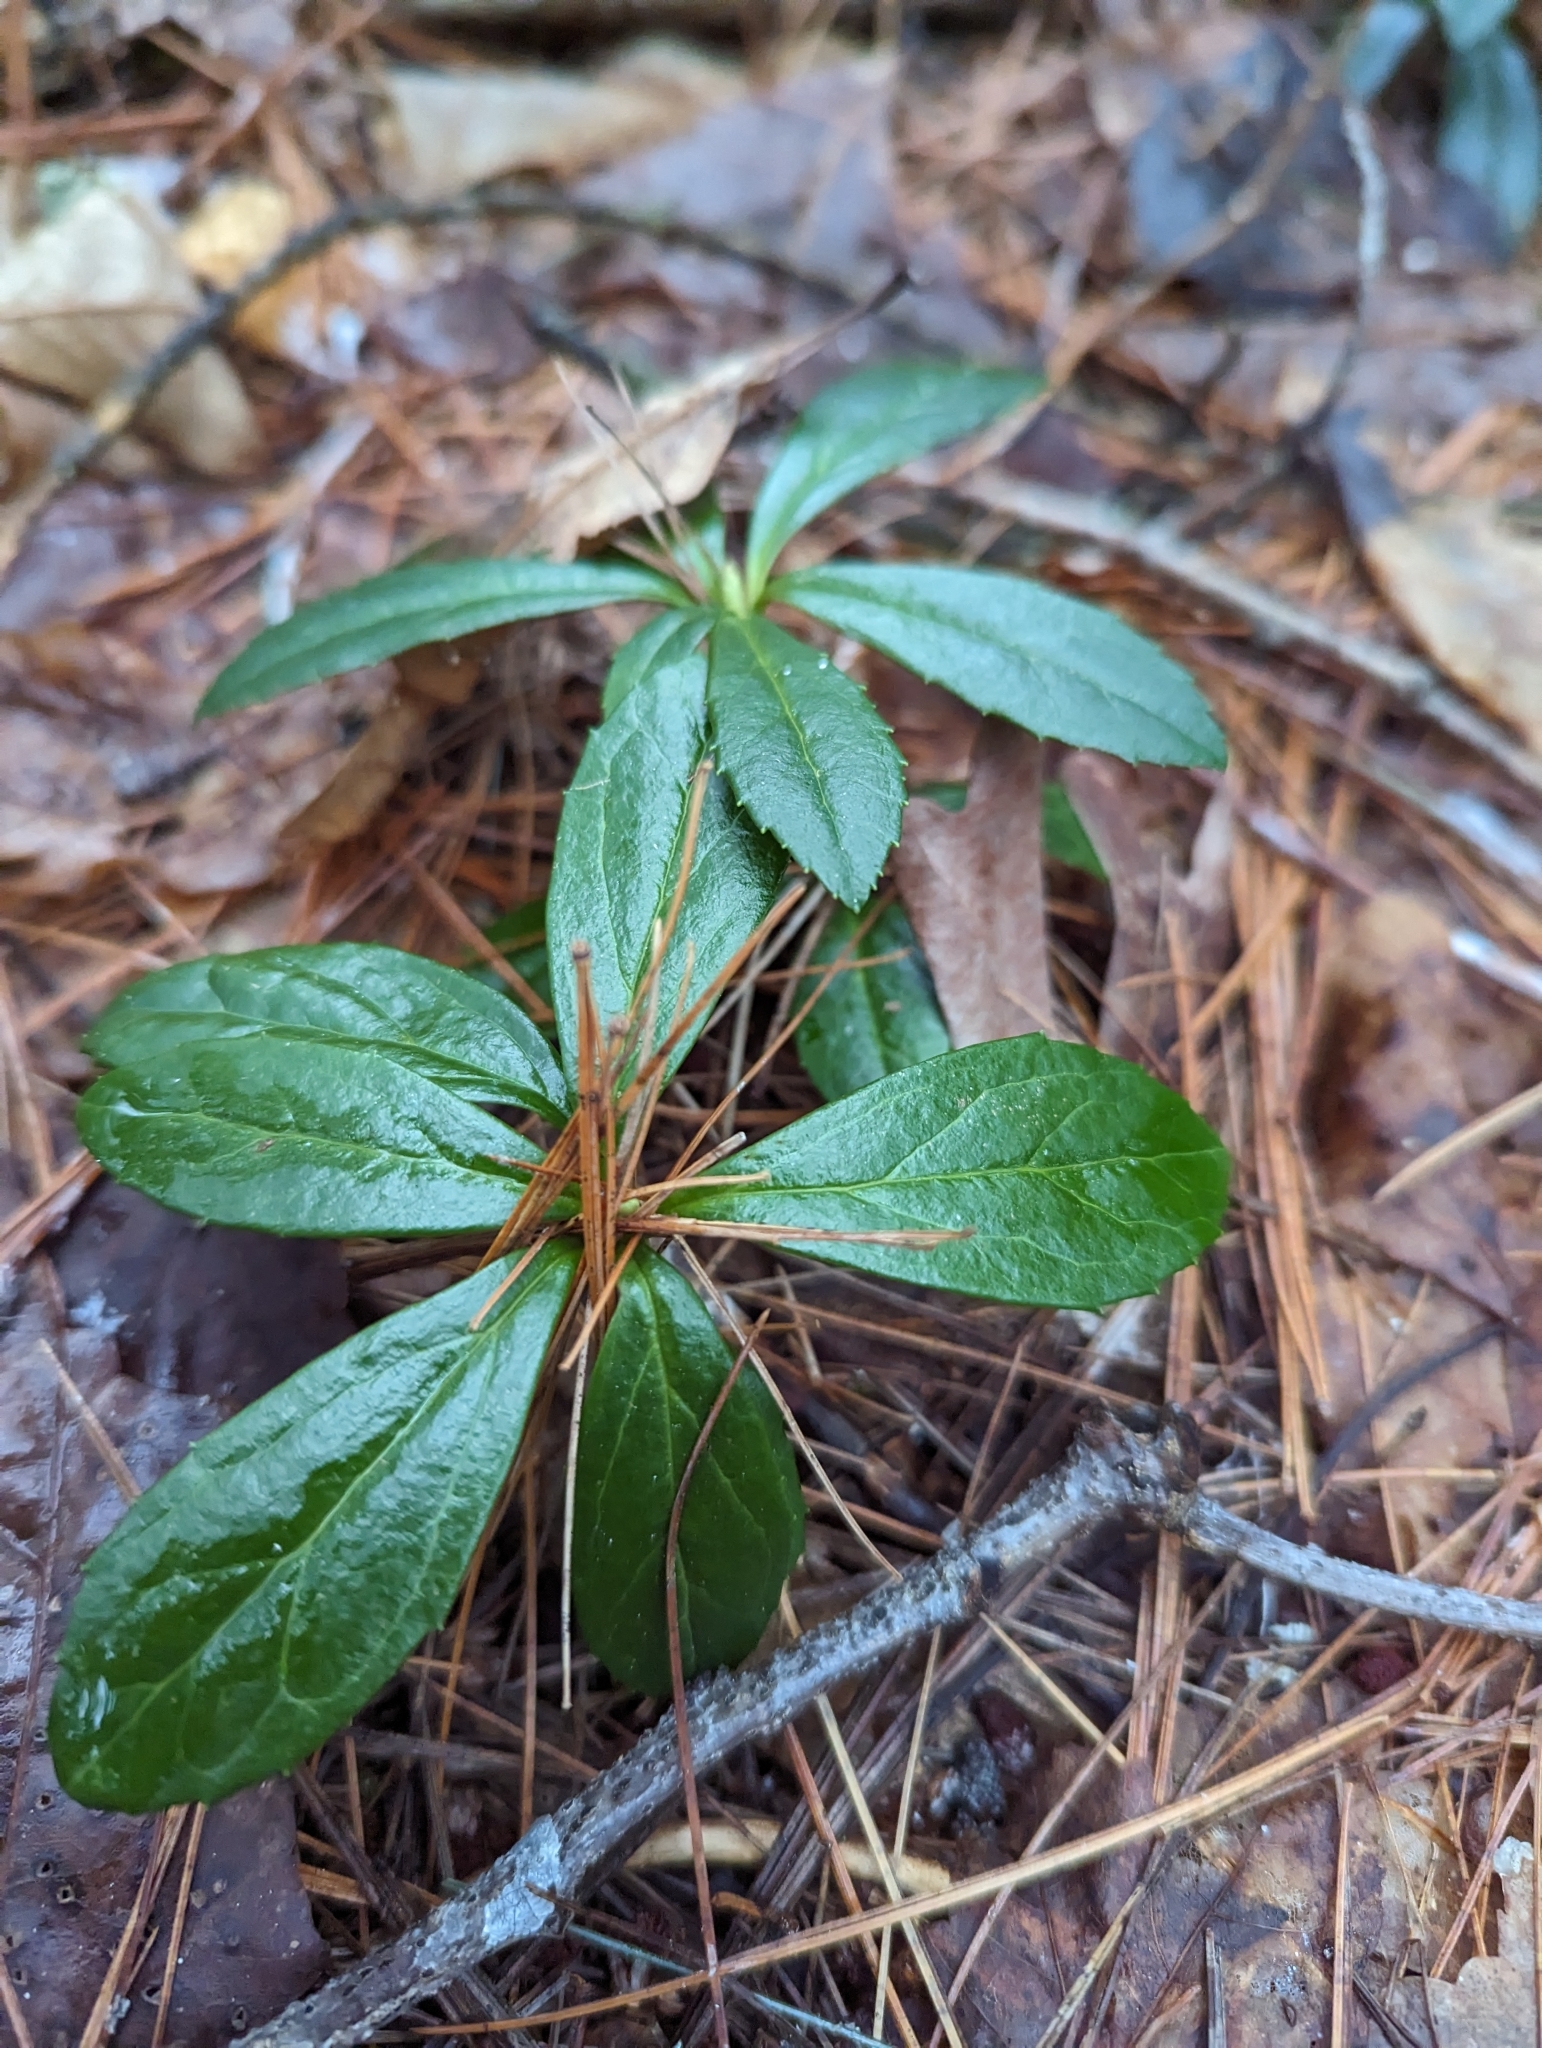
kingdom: Plantae
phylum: Tracheophyta
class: Magnoliopsida
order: Ericales
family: Ericaceae
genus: Chimaphila
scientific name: Chimaphila umbellata
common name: Pipsissewa
